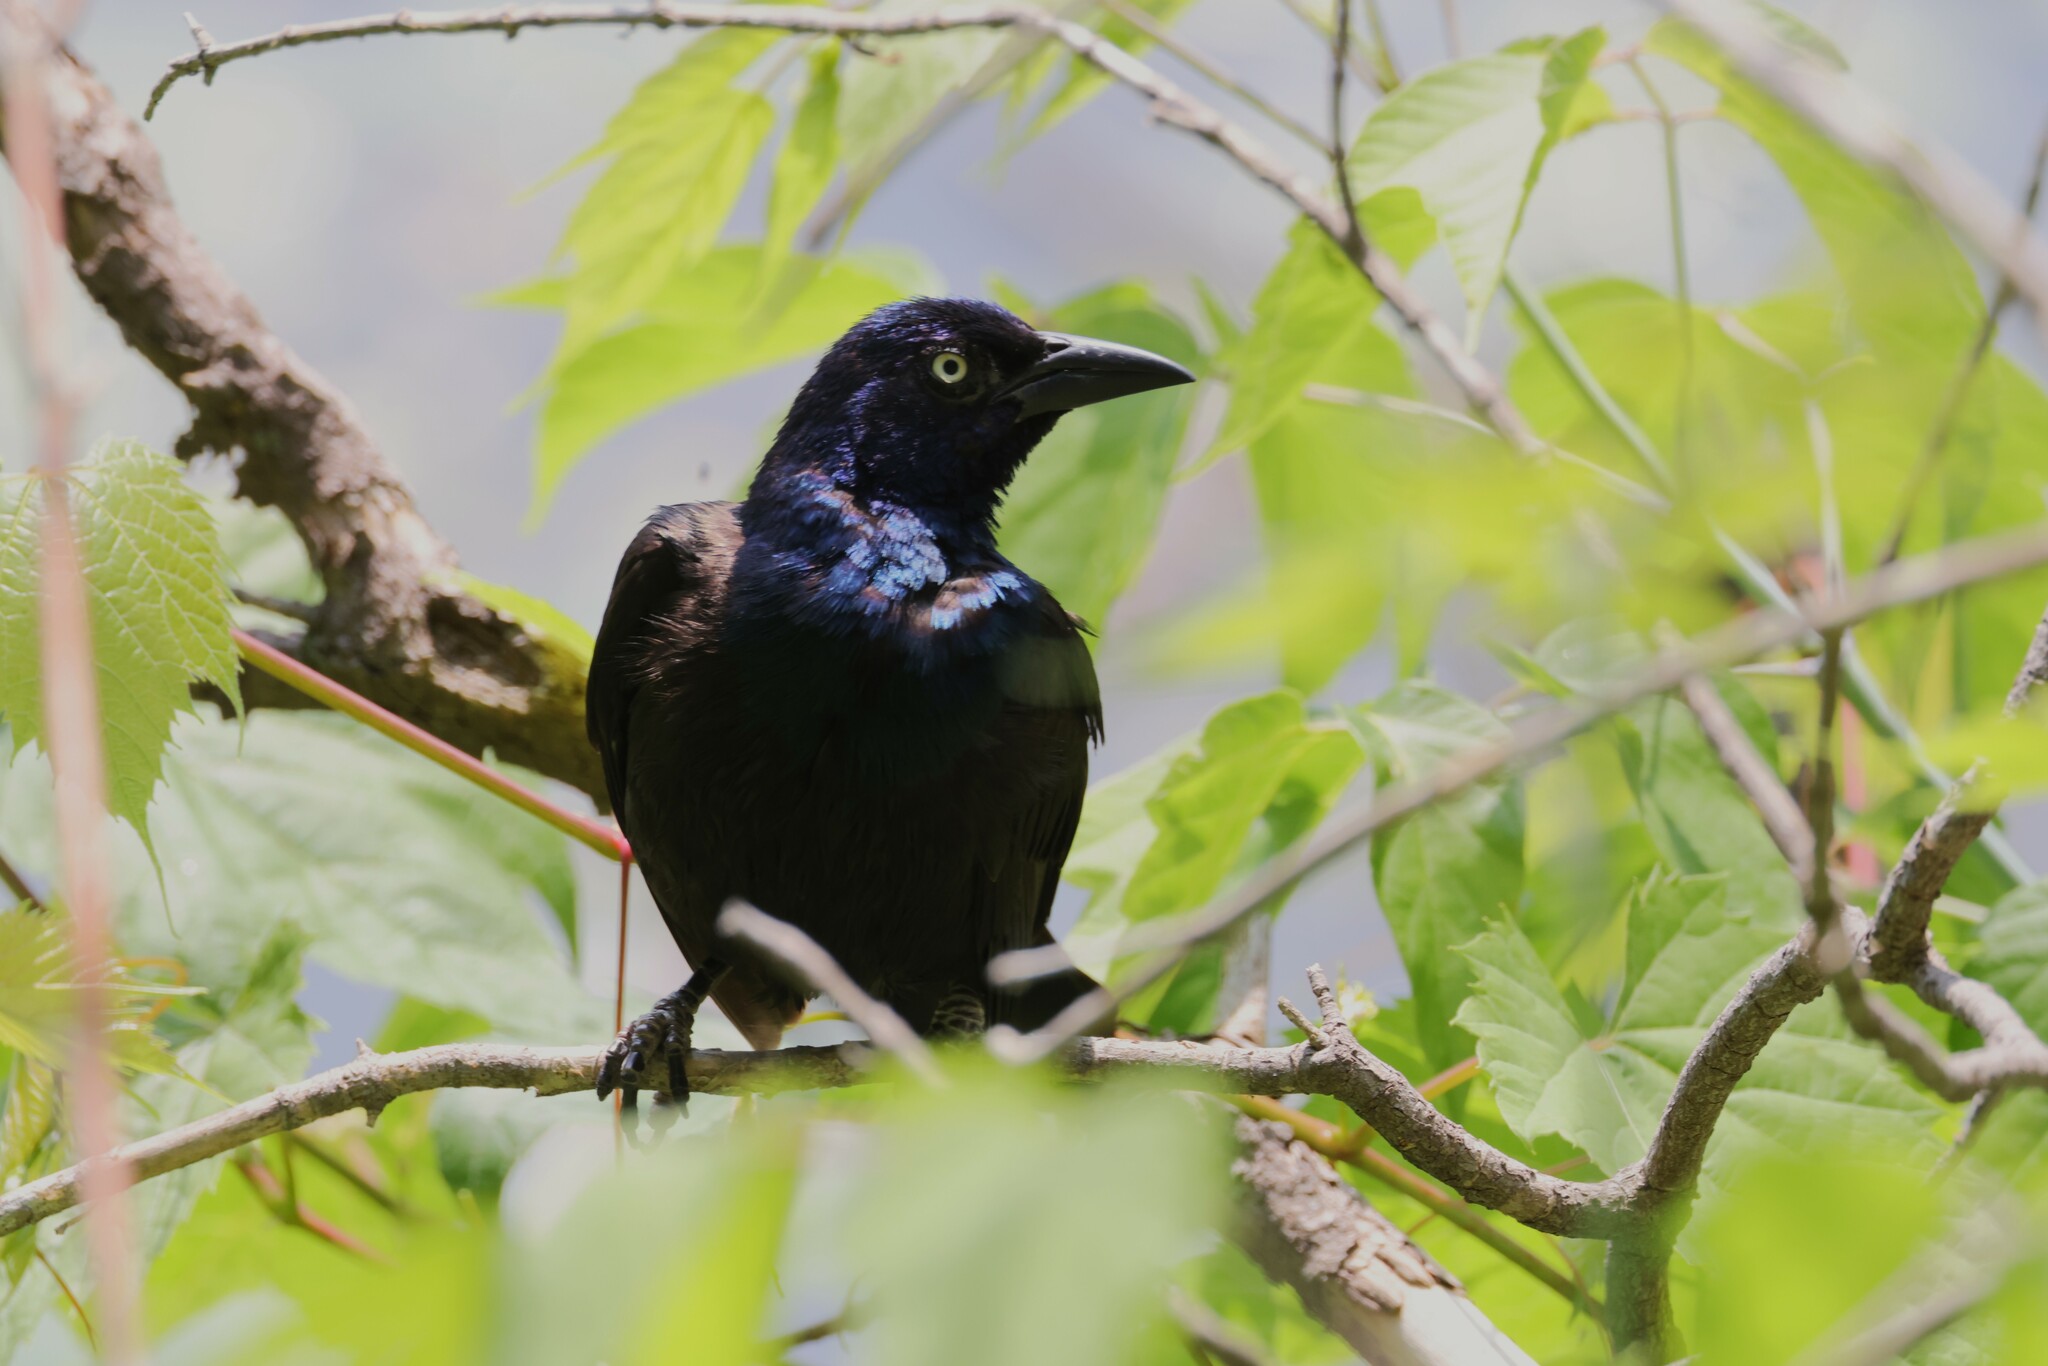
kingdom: Animalia
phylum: Chordata
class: Aves
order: Passeriformes
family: Icteridae
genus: Quiscalus
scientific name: Quiscalus quiscula
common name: Common grackle
